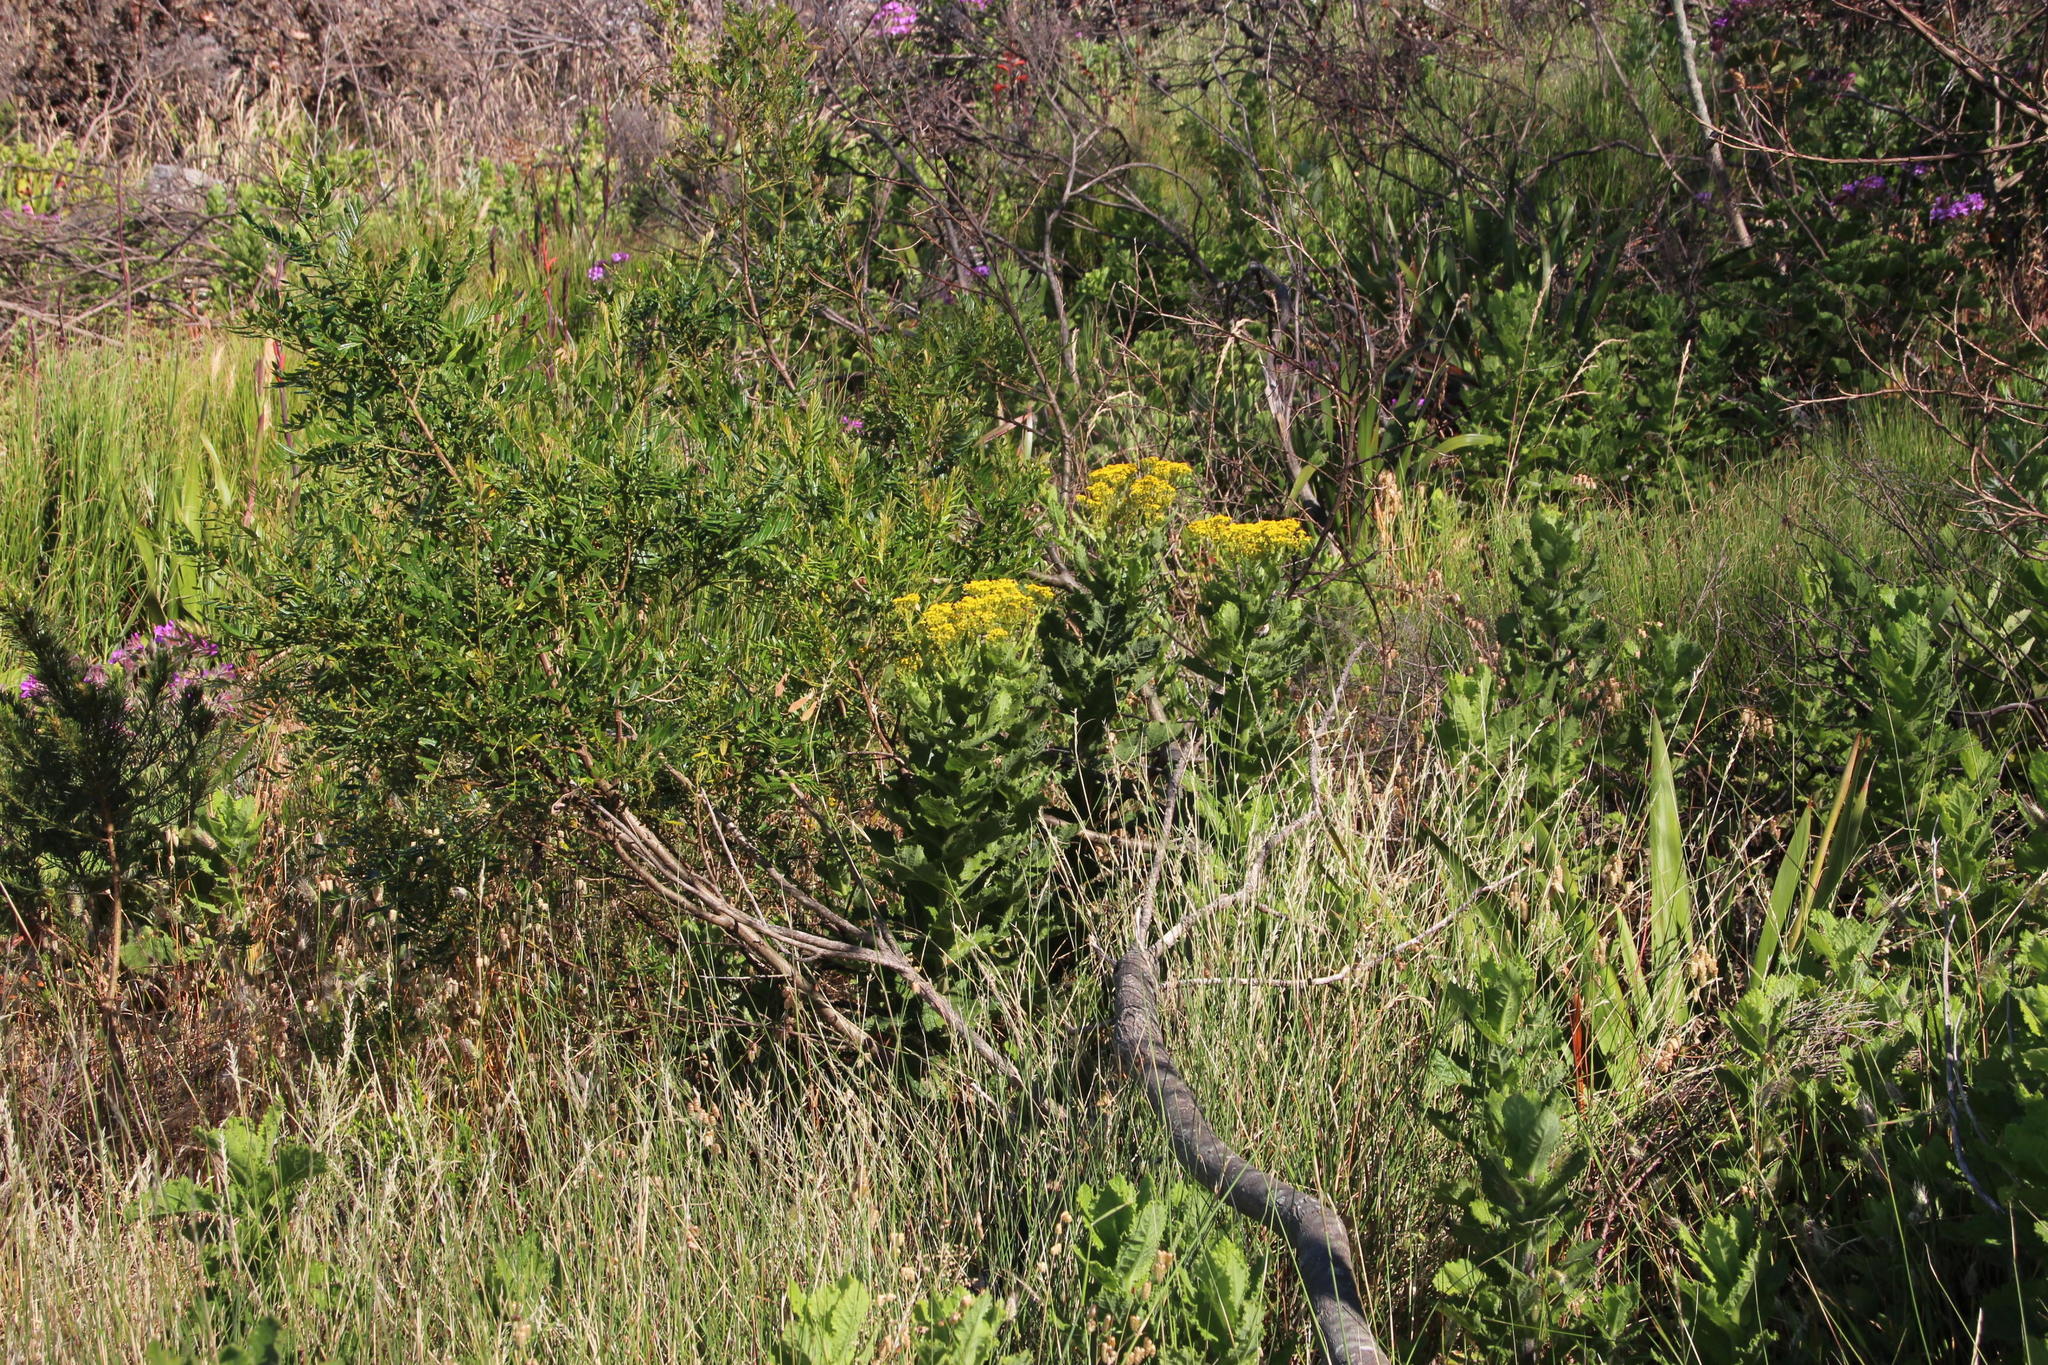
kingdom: Plantae
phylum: Tracheophyta
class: Magnoliopsida
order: Asterales
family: Asteraceae
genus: Senecio
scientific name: Senecio rigidus
